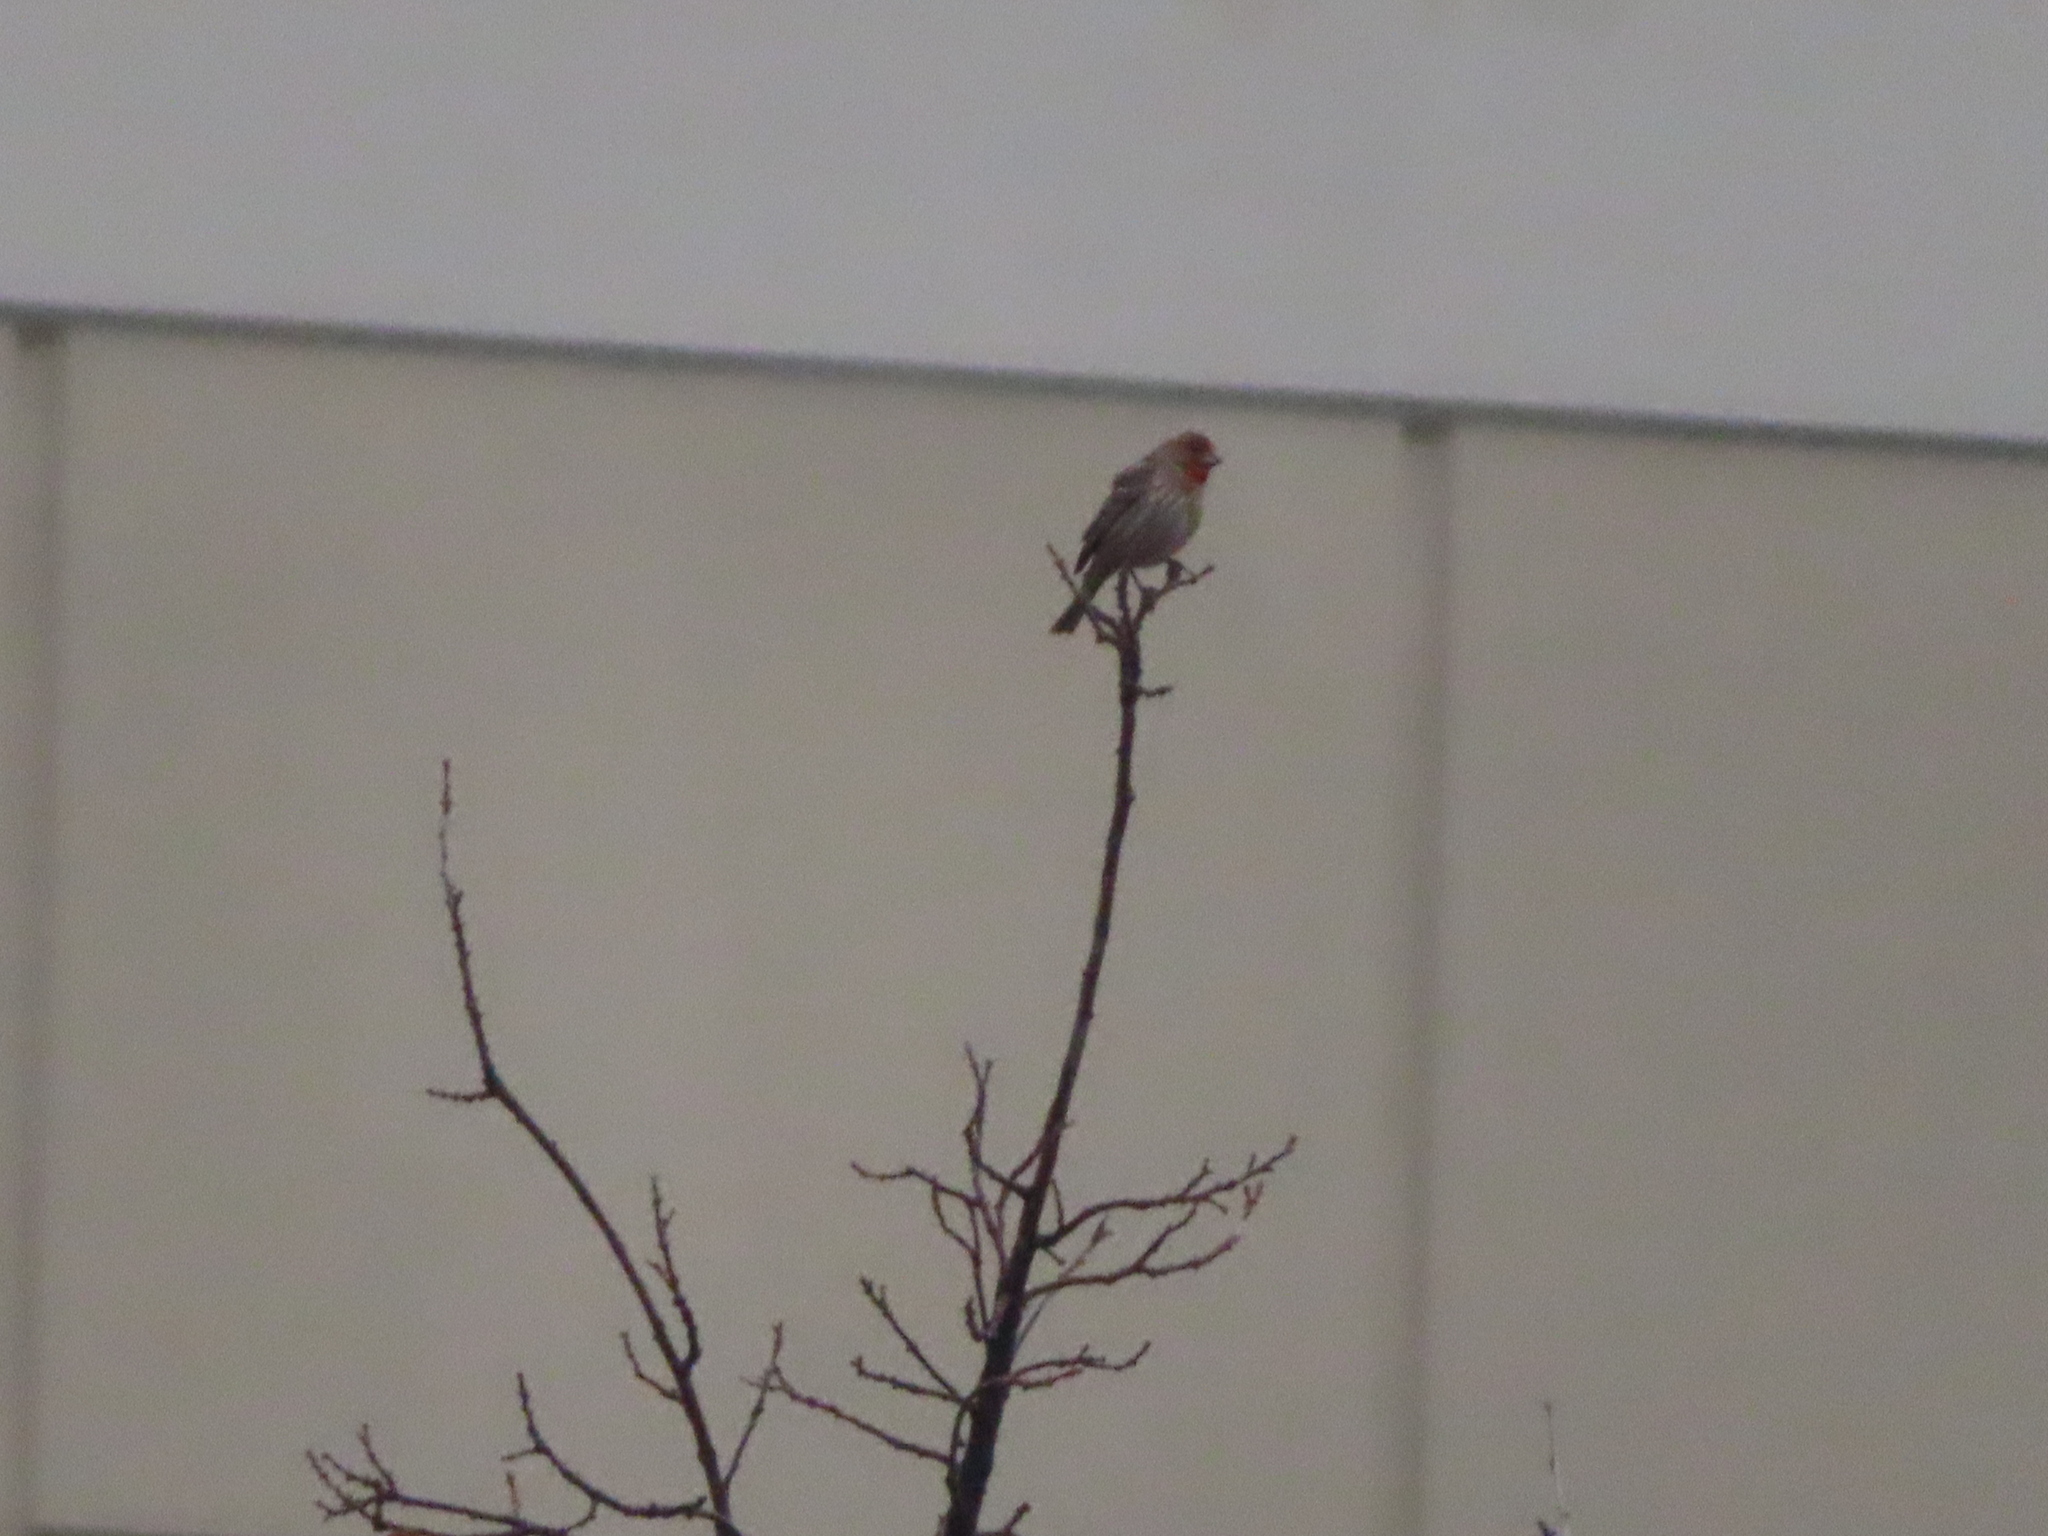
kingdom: Animalia
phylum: Chordata
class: Aves
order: Passeriformes
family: Fringillidae
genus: Haemorhous
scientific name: Haemorhous mexicanus
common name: House finch
